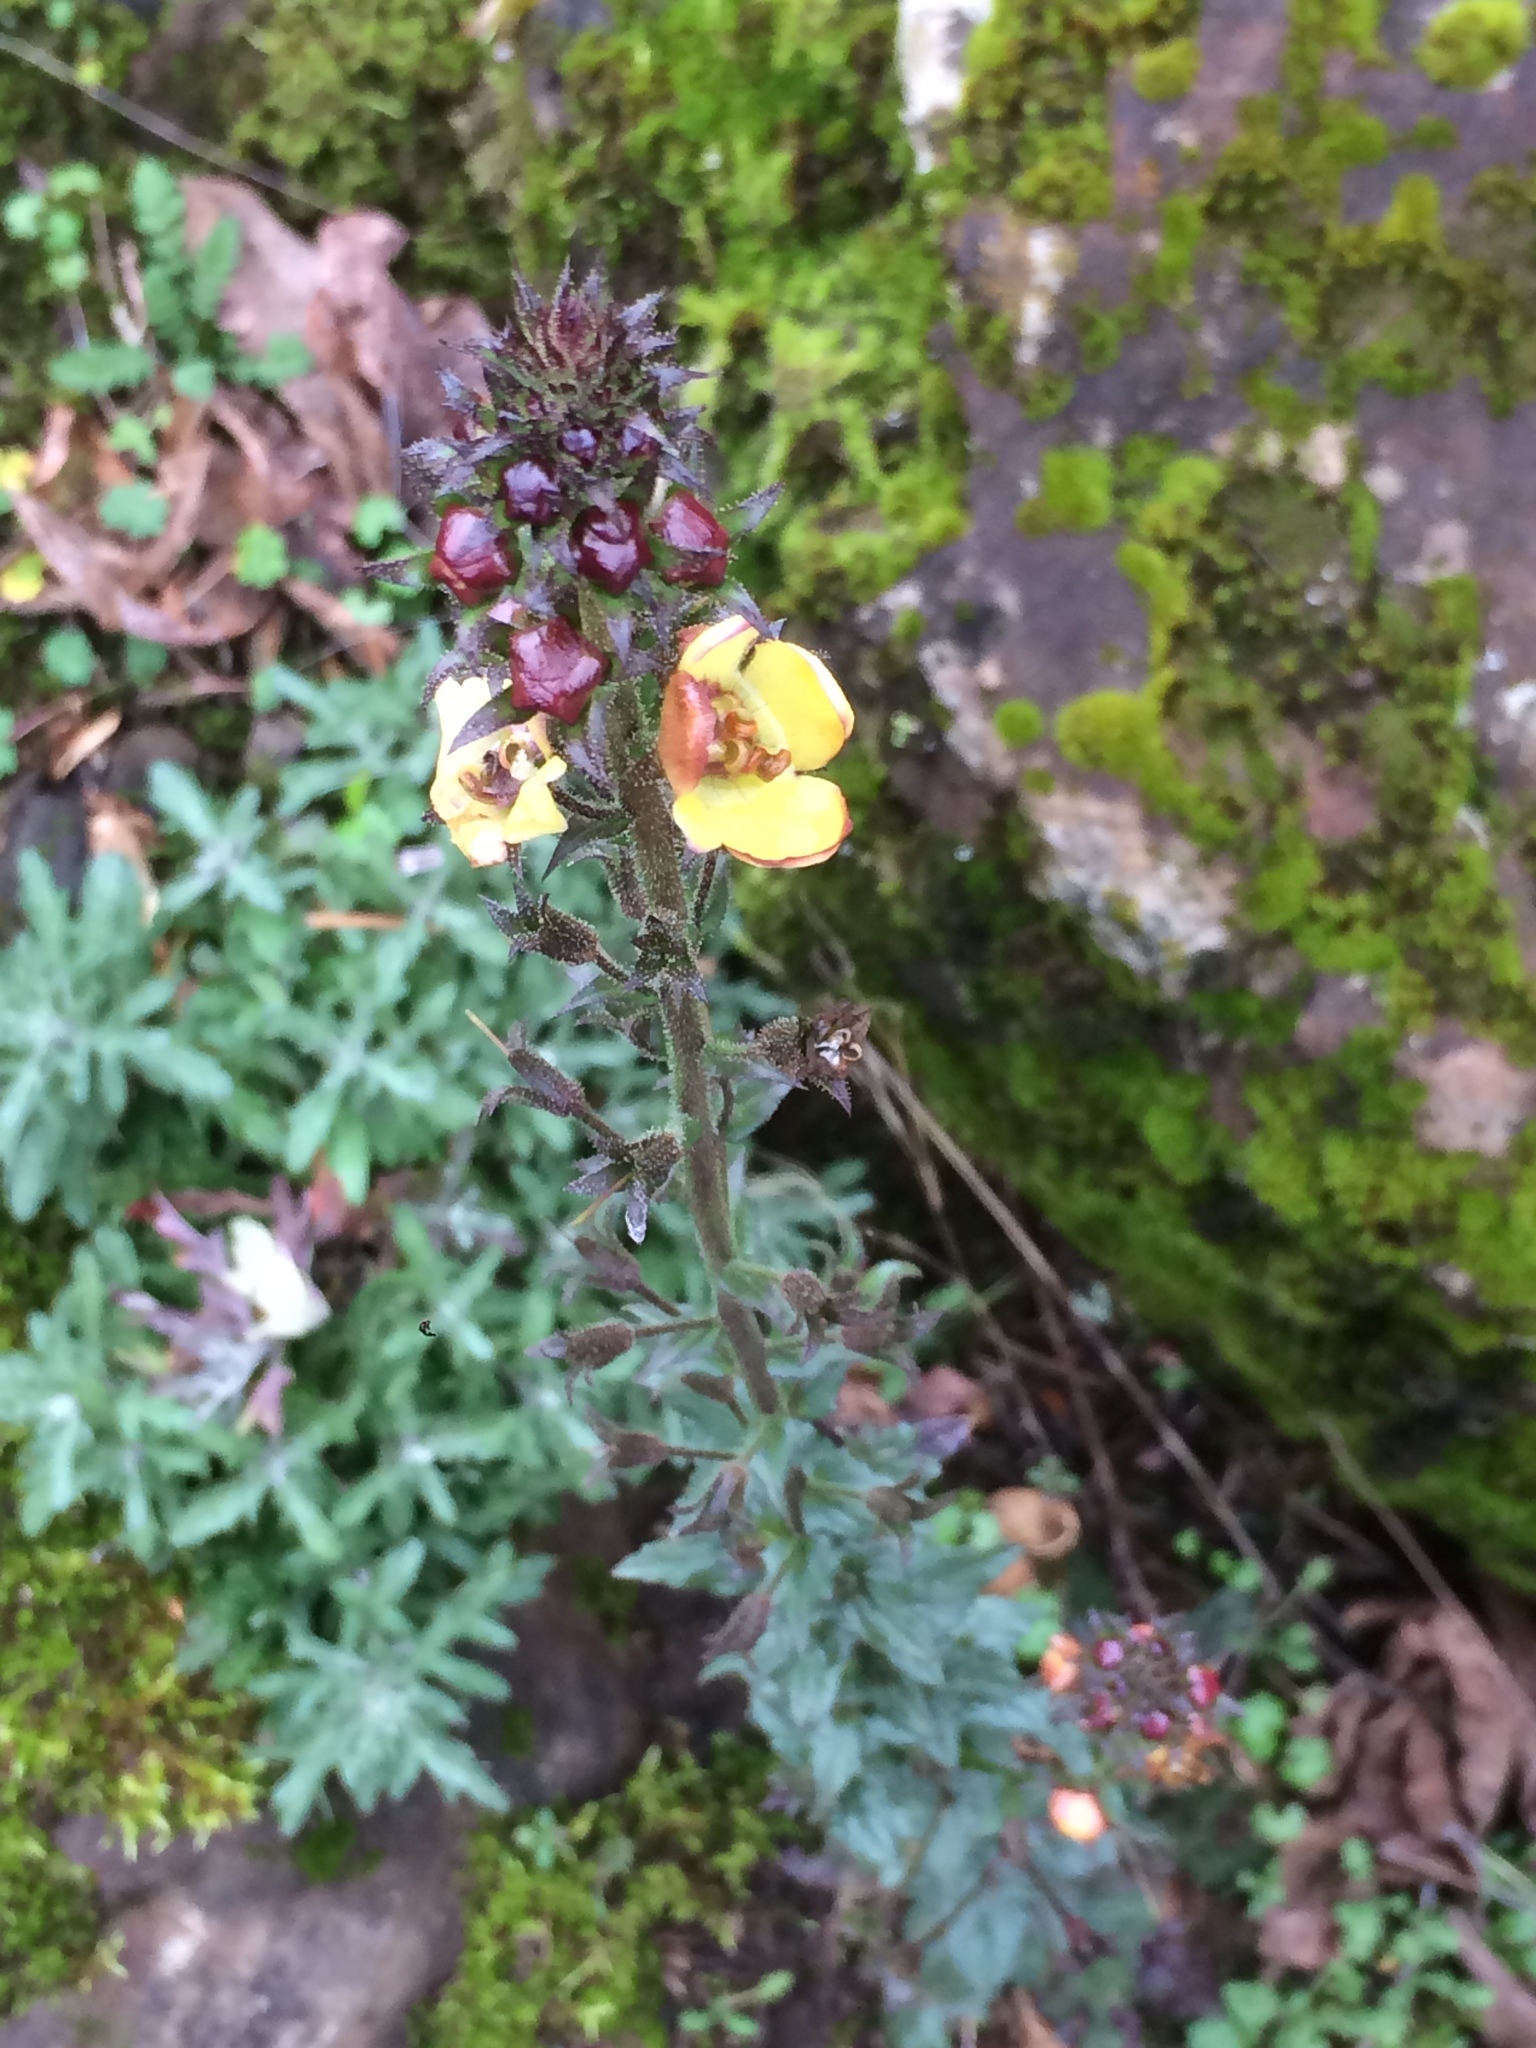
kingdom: Plantae
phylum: Tracheophyta
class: Magnoliopsida
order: Lamiales
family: Scrophulariaceae
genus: Verbascum
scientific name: Verbascum blattaria
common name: Moth mullein
